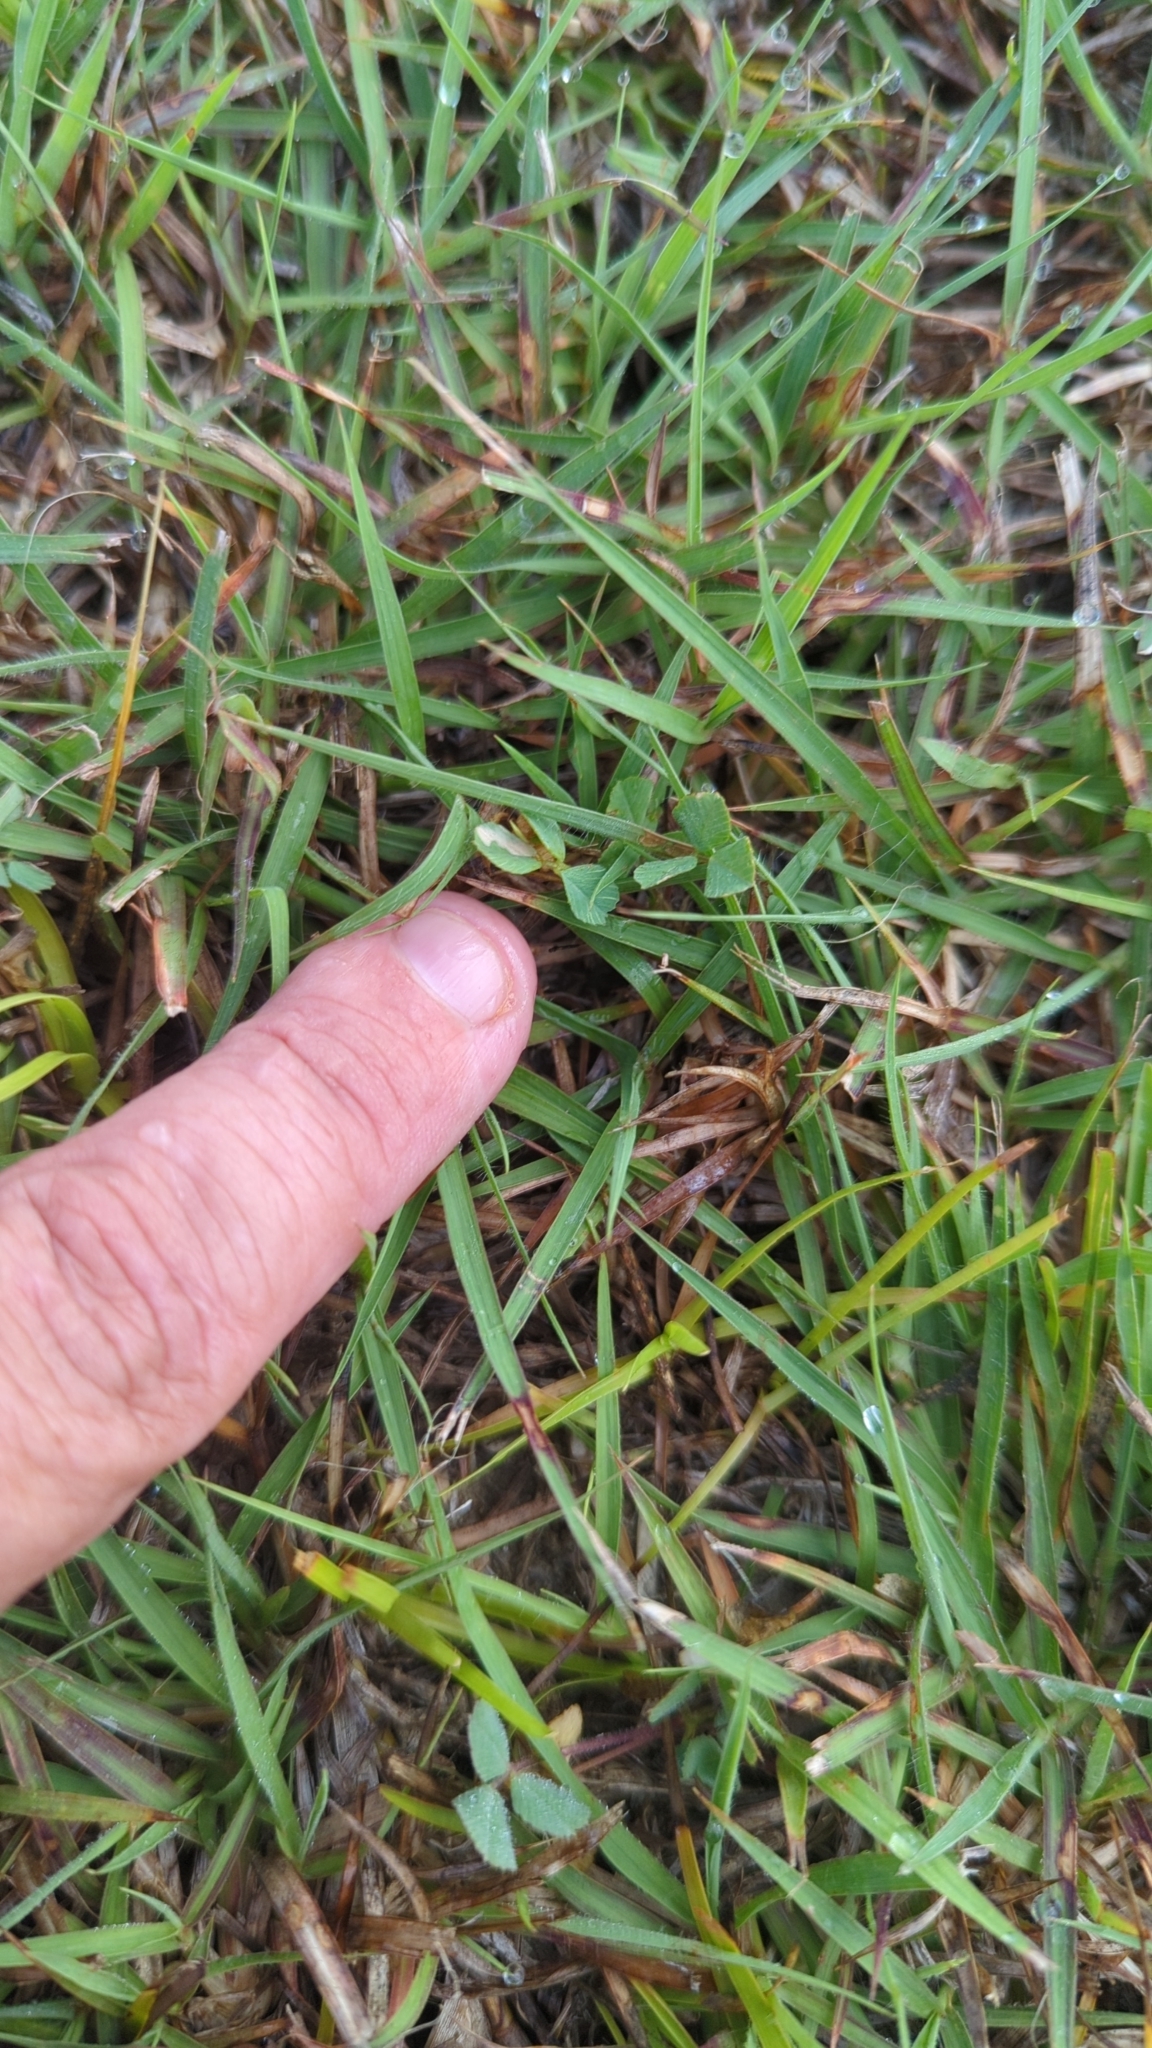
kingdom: Plantae
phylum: Tracheophyta
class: Magnoliopsida
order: Fabales
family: Fabaceae
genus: Trifolium
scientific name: Trifolium repens
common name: White clover
